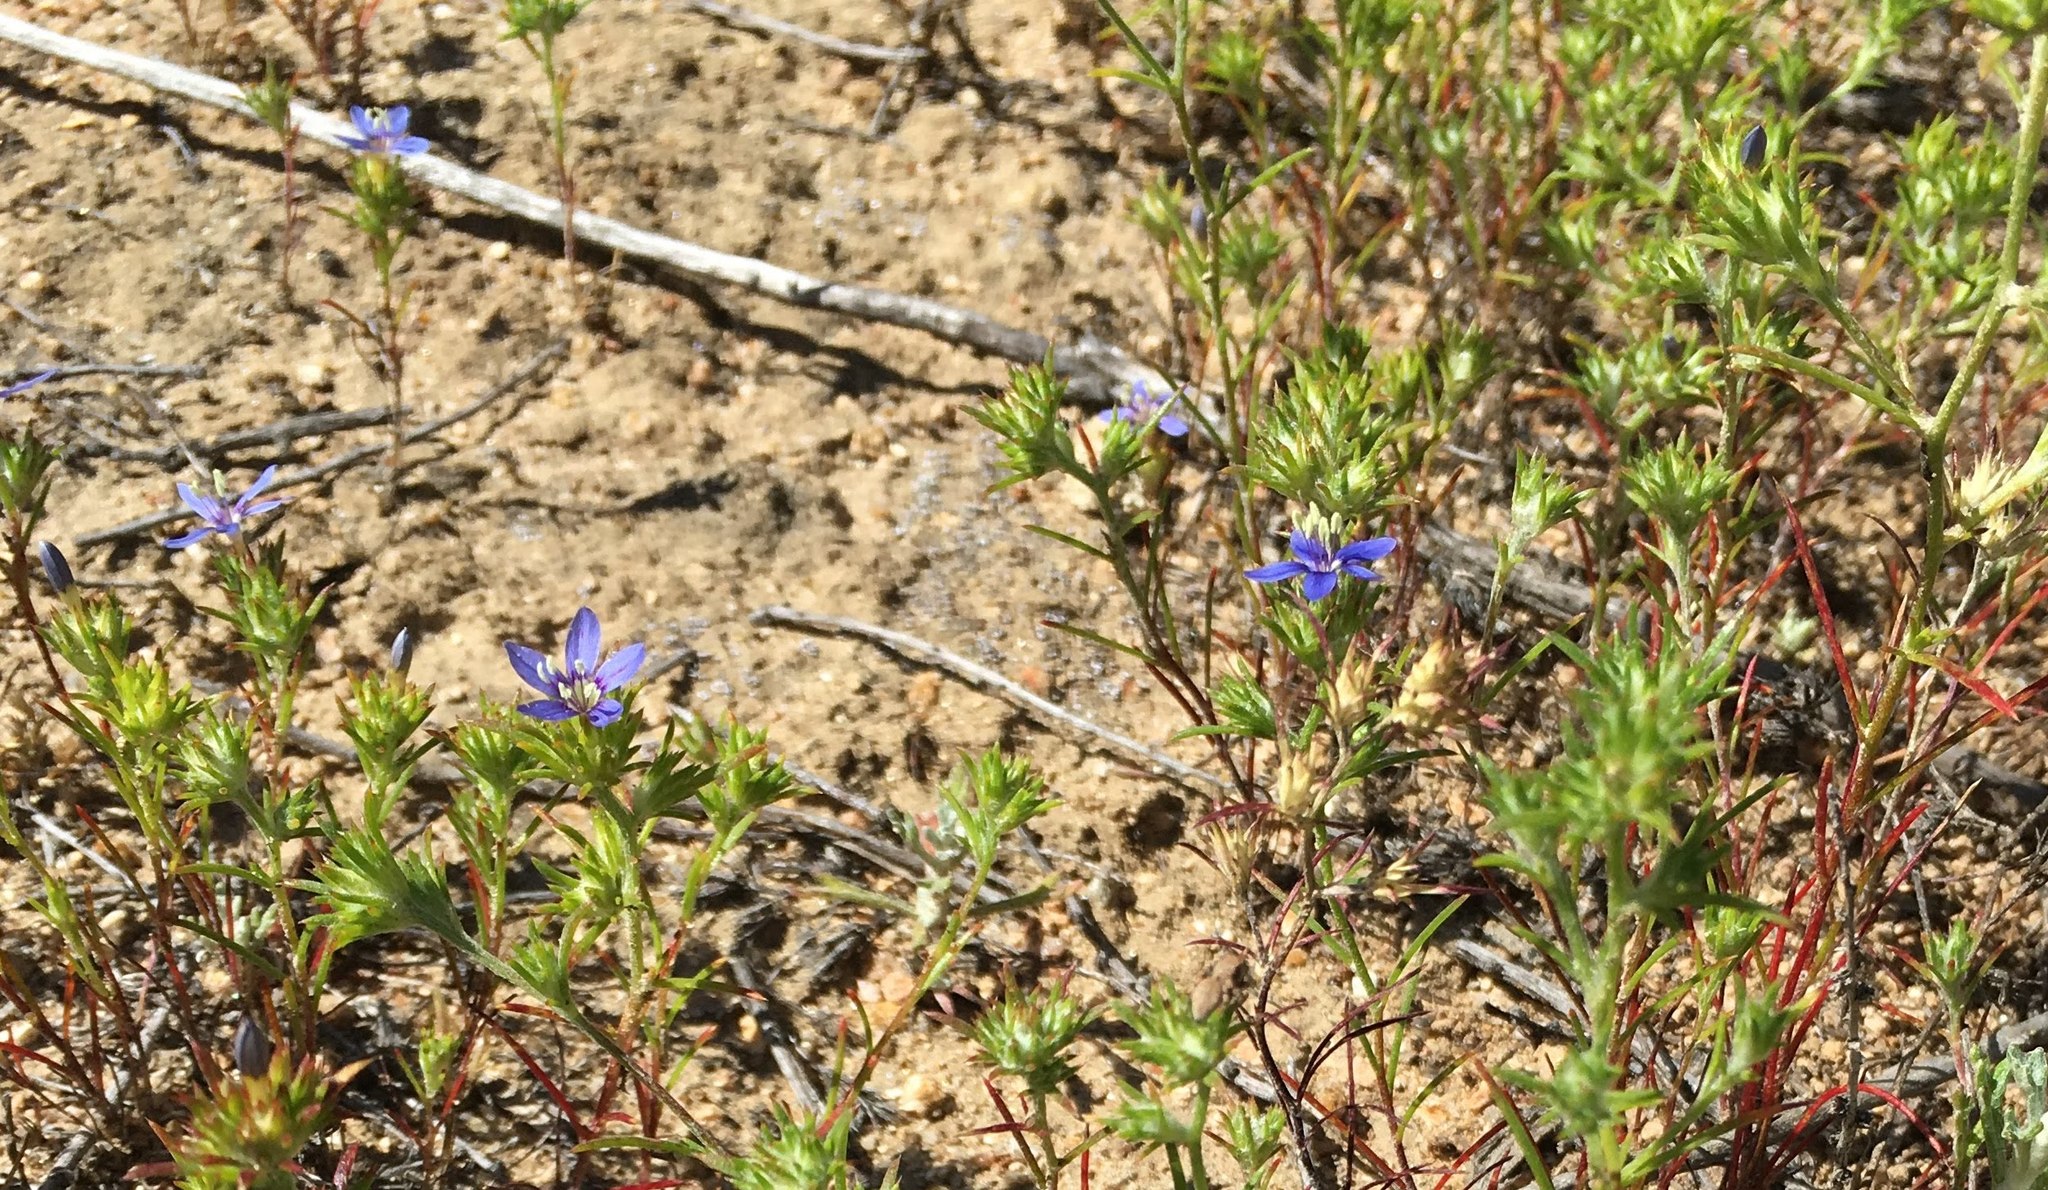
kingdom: Plantae
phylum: Tracheophyta
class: Magnoliopsida
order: Ericales
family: Polemoniaceae
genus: Eriastrum
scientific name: Eriastrum sapphirinum
